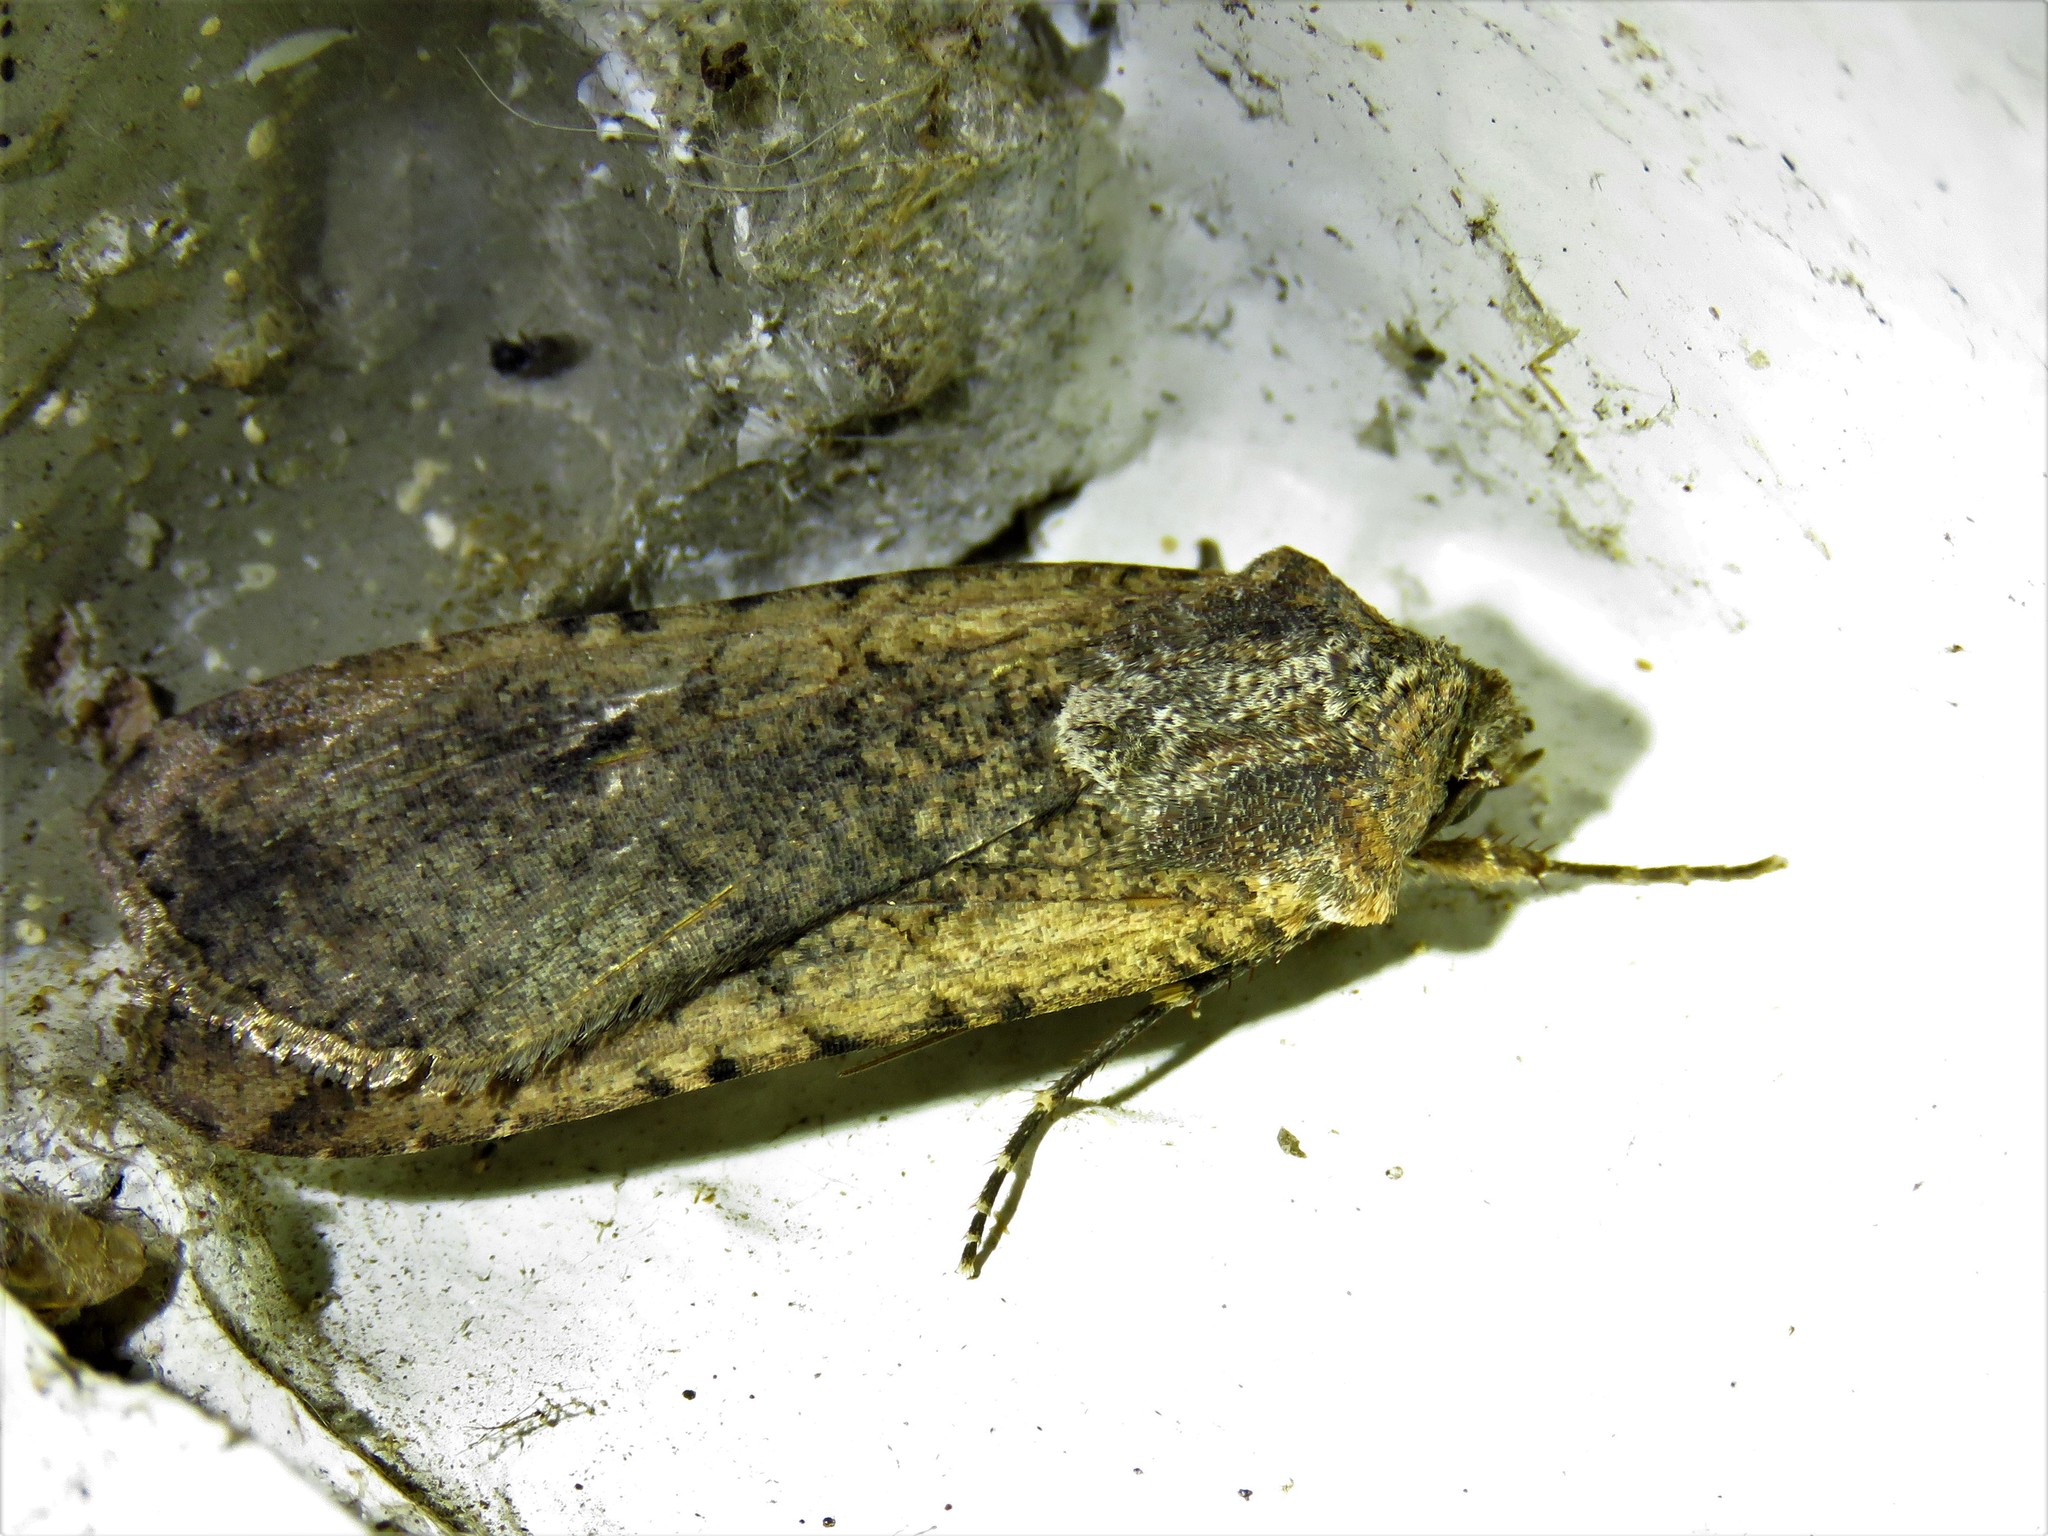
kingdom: Animalia
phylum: Arthropoda
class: Insecta
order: Lepidoptera
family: Noctuidae
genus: Peridroma
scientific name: Peridroma saucia
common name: Pearly underwing
